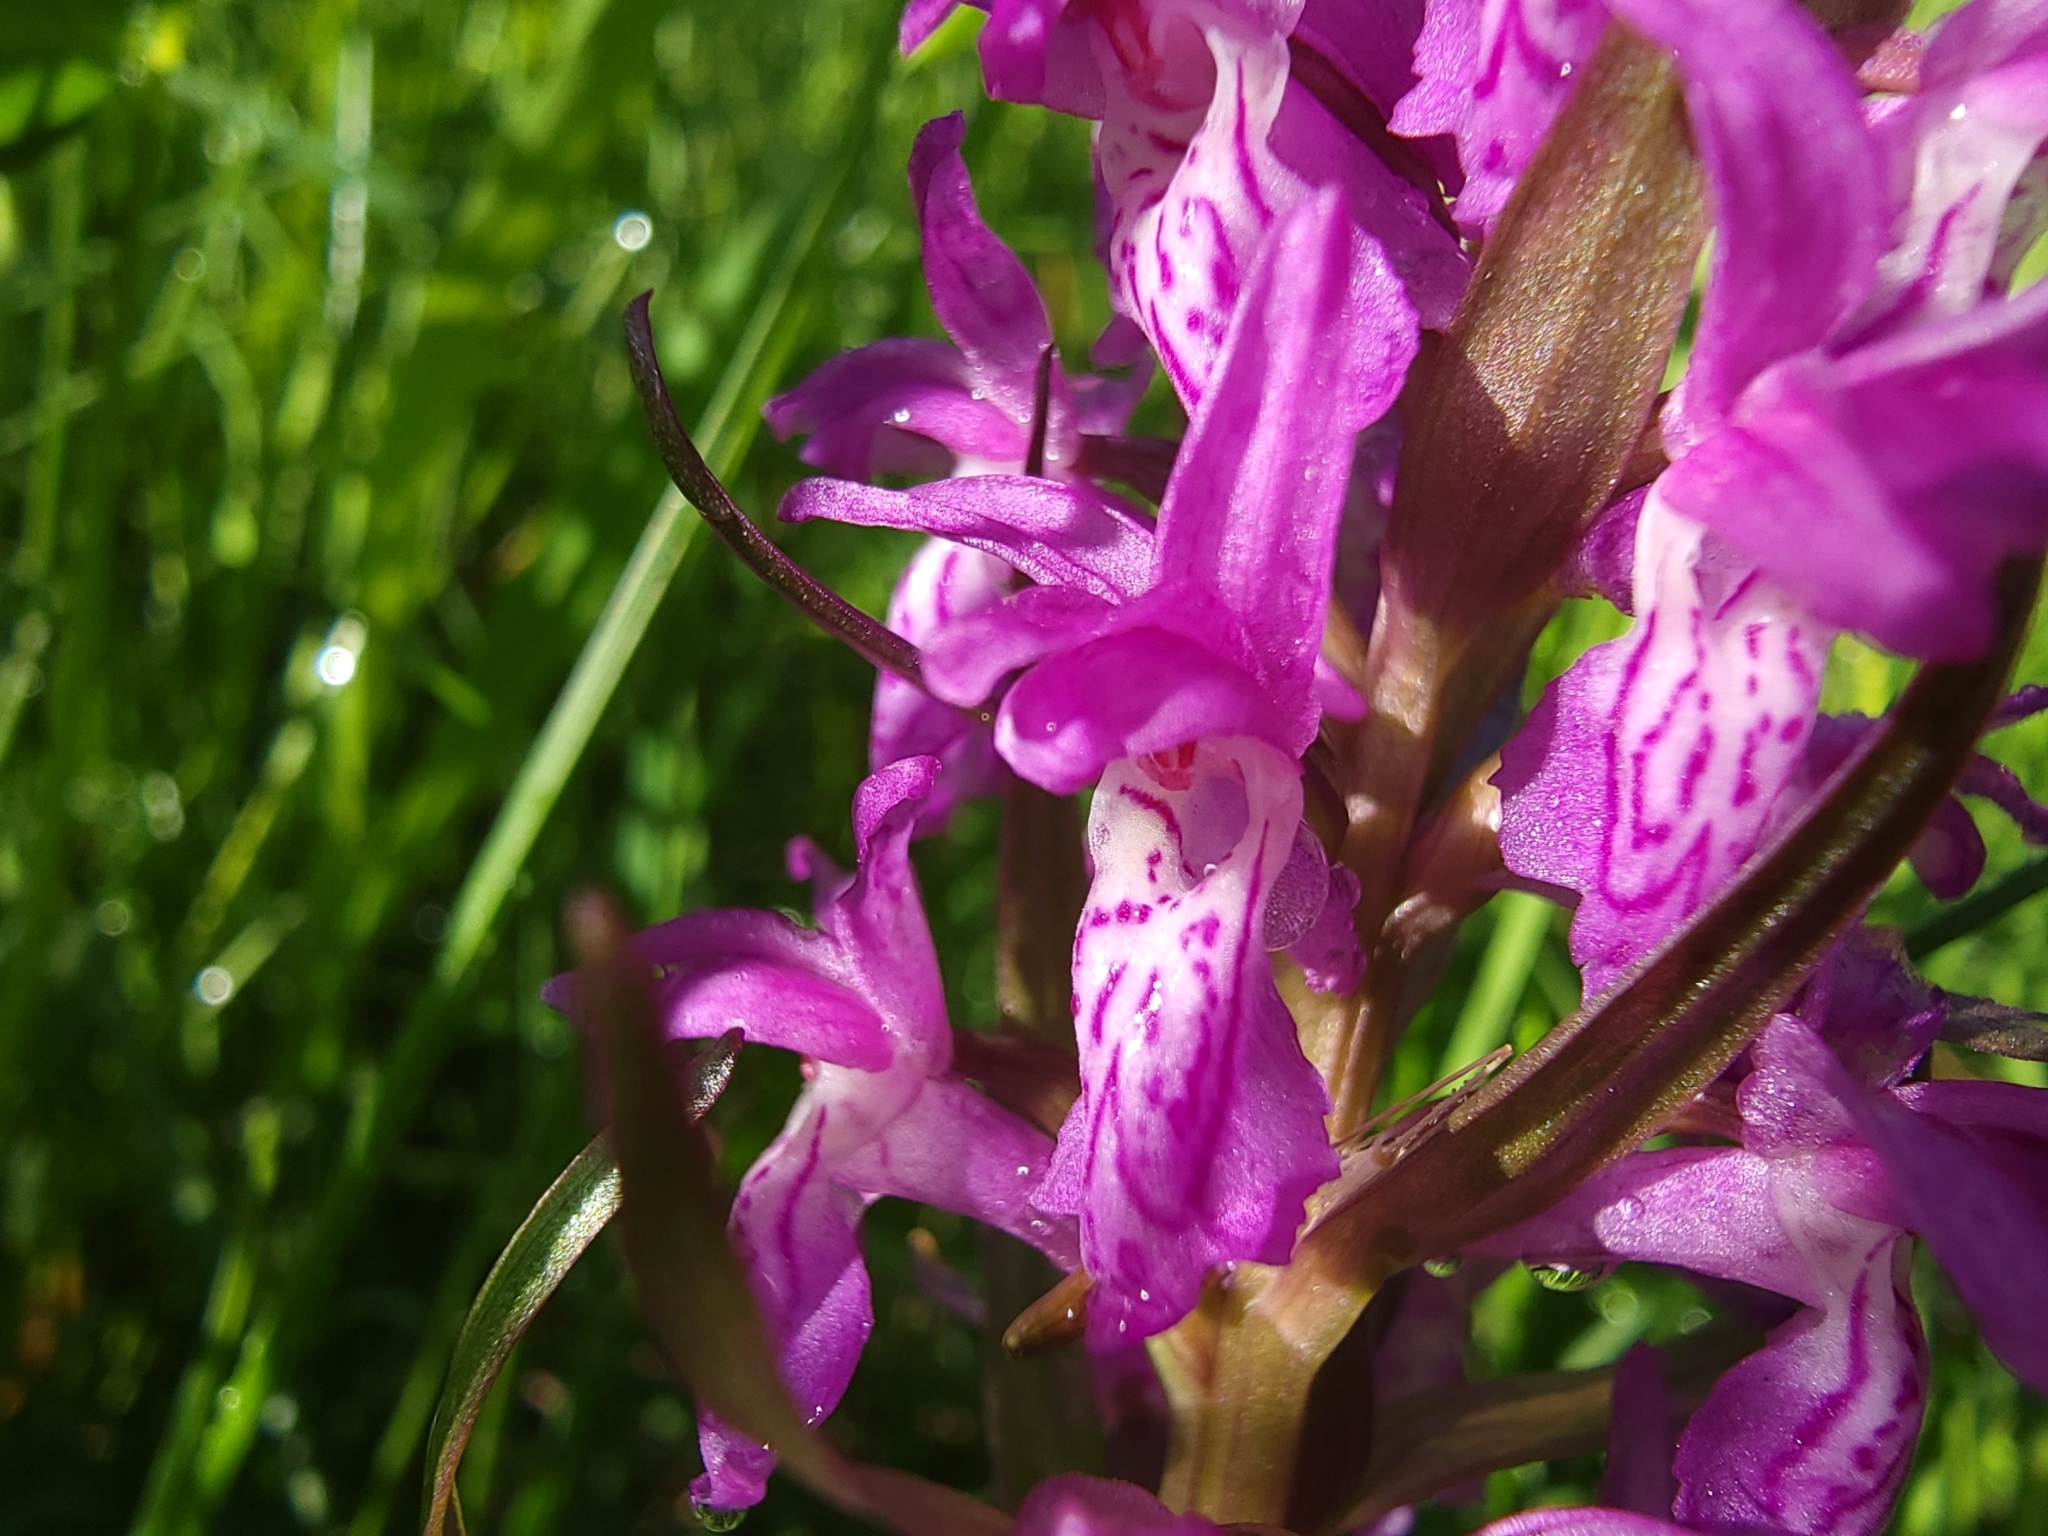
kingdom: Plantae
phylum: Tracheophyta
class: Liliopsida
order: Asparagales
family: Orchidaceae
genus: Dactylorhiza
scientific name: Dactylorhiza majalis
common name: Marsh orchid
